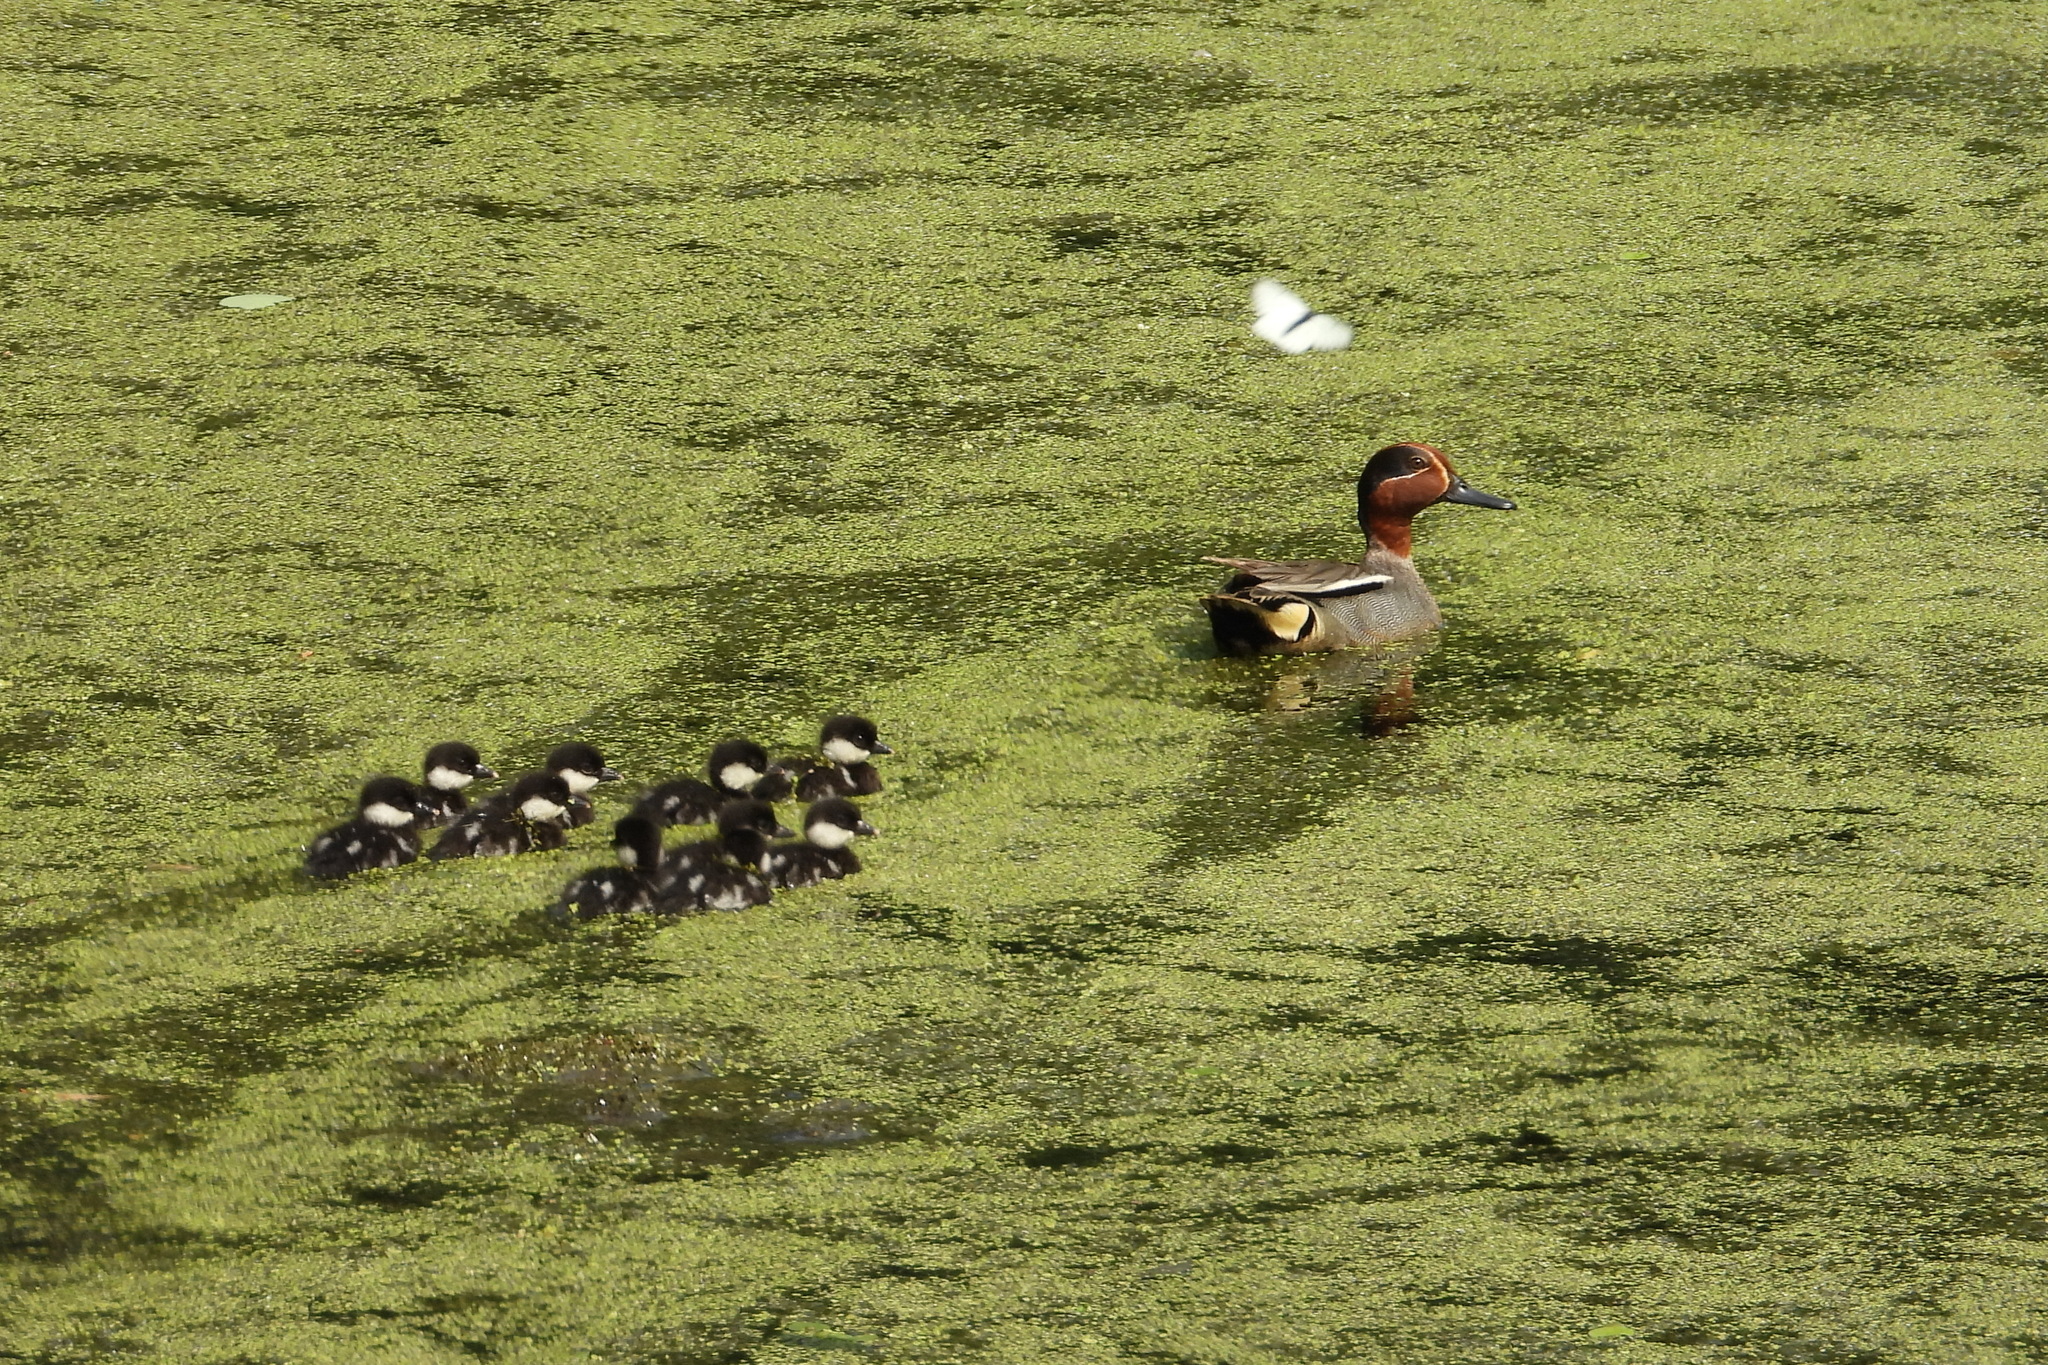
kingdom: Animalia
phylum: Chordata
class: Aves
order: Anseriformes
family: Anatidae
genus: Anas
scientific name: Anas crecca
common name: Eurasian teal
